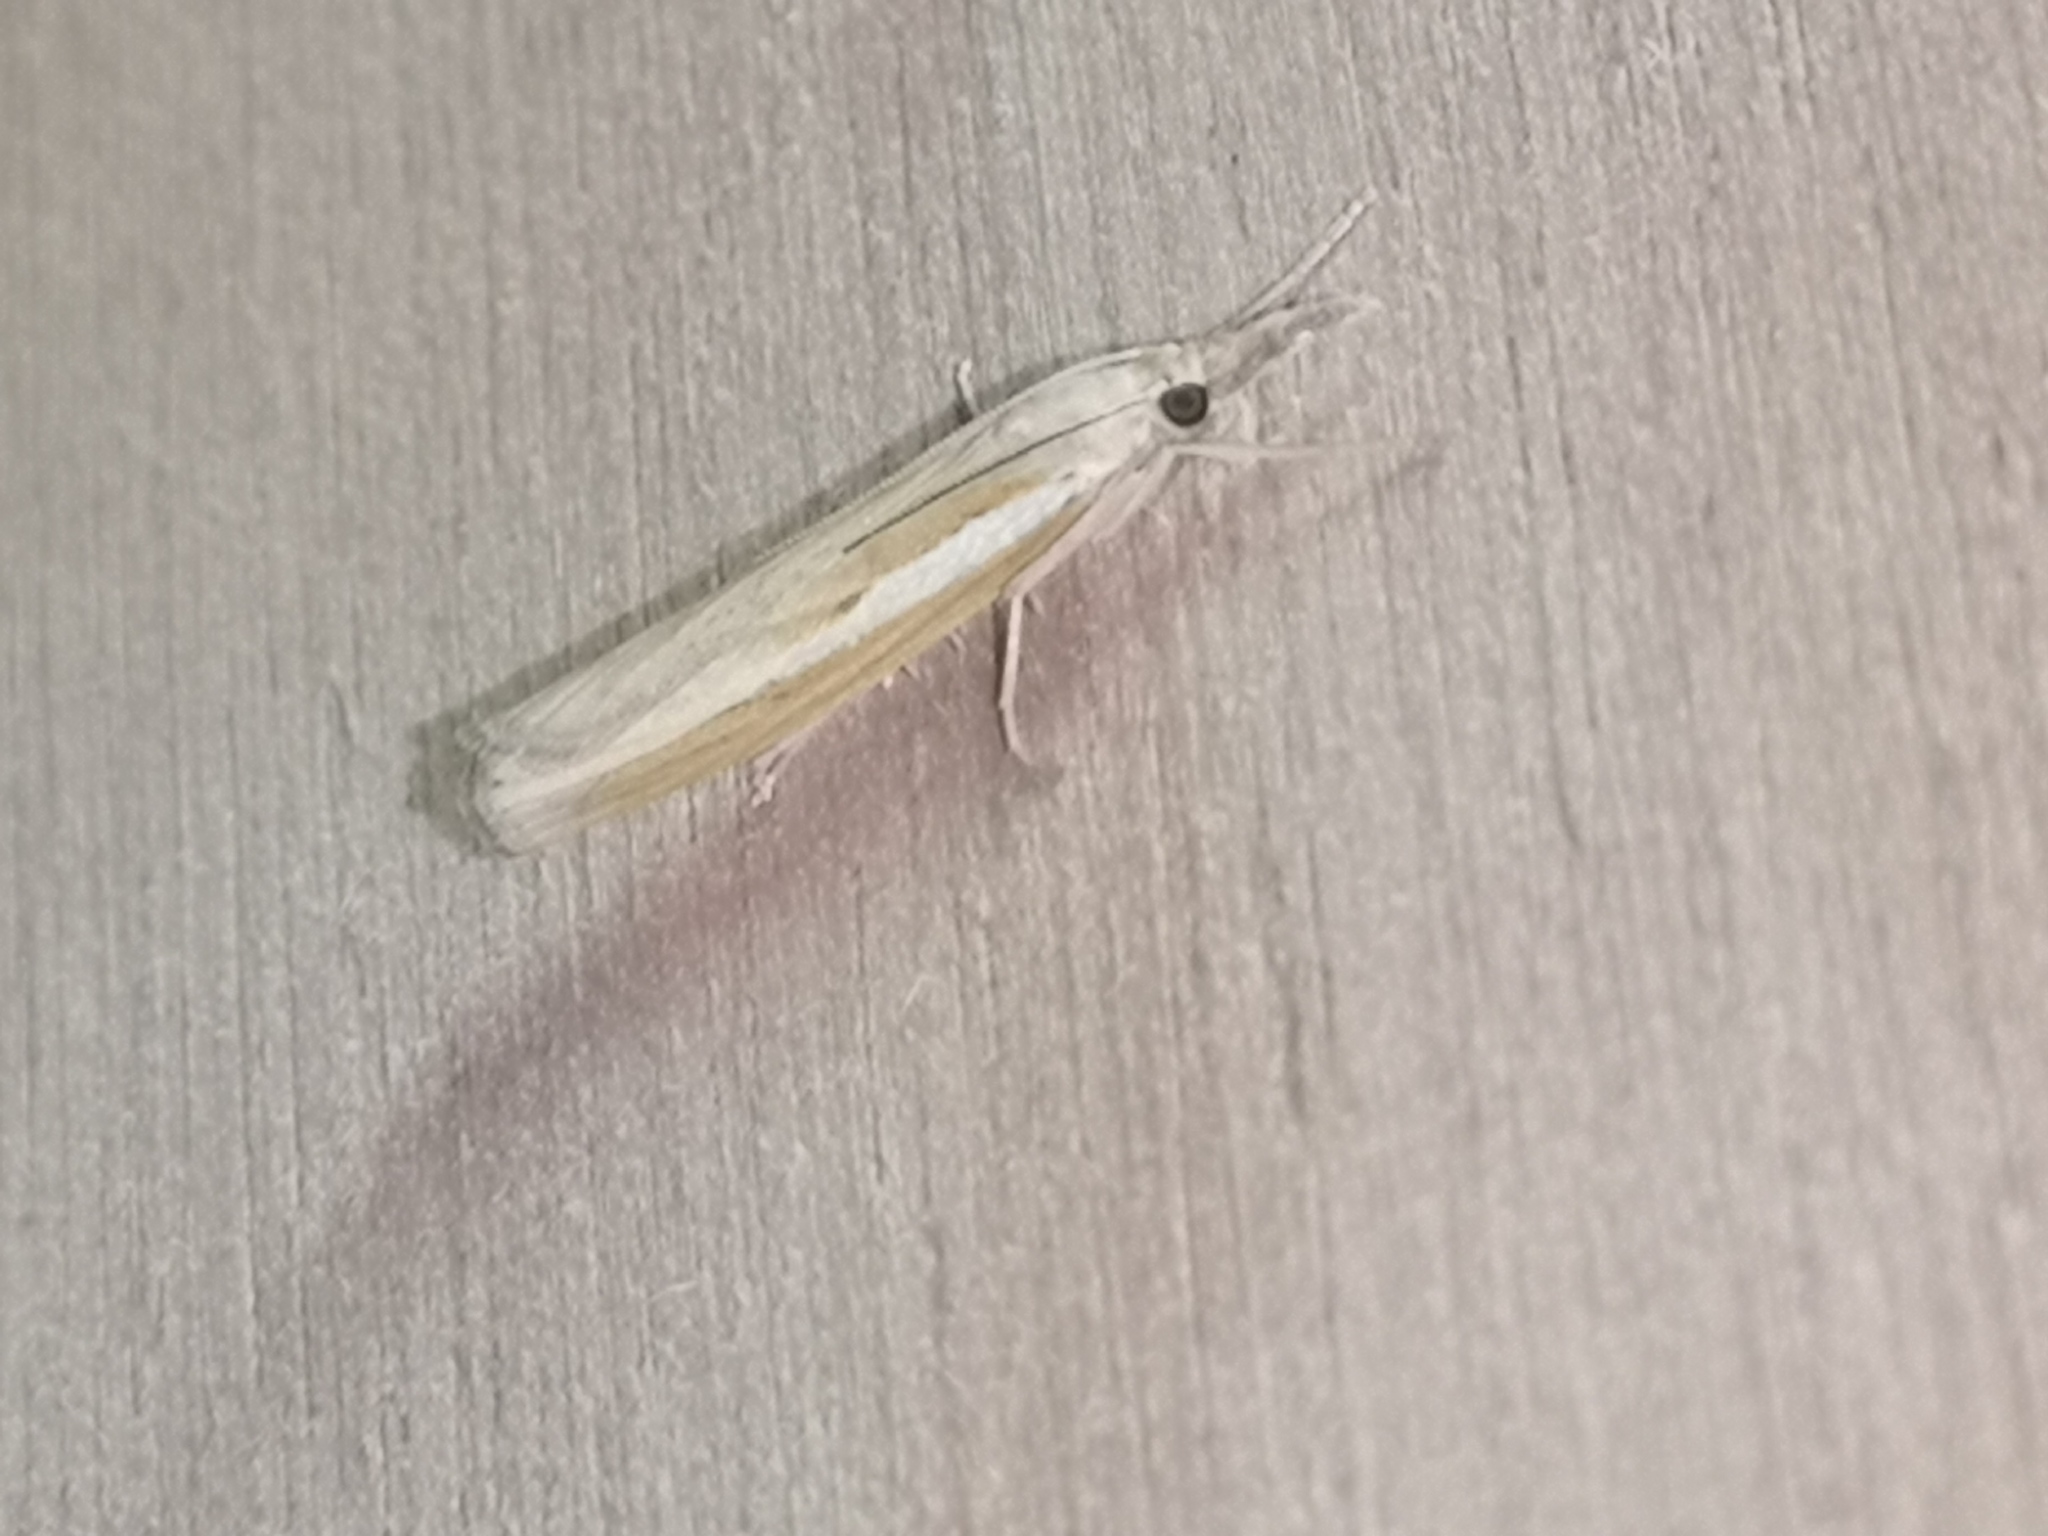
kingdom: Animalia
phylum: Arthropoda
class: Insecta
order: Lepidoptera
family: Crambidae
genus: Agriphila
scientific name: Agriphila tristellus
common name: Common grass-veneer
